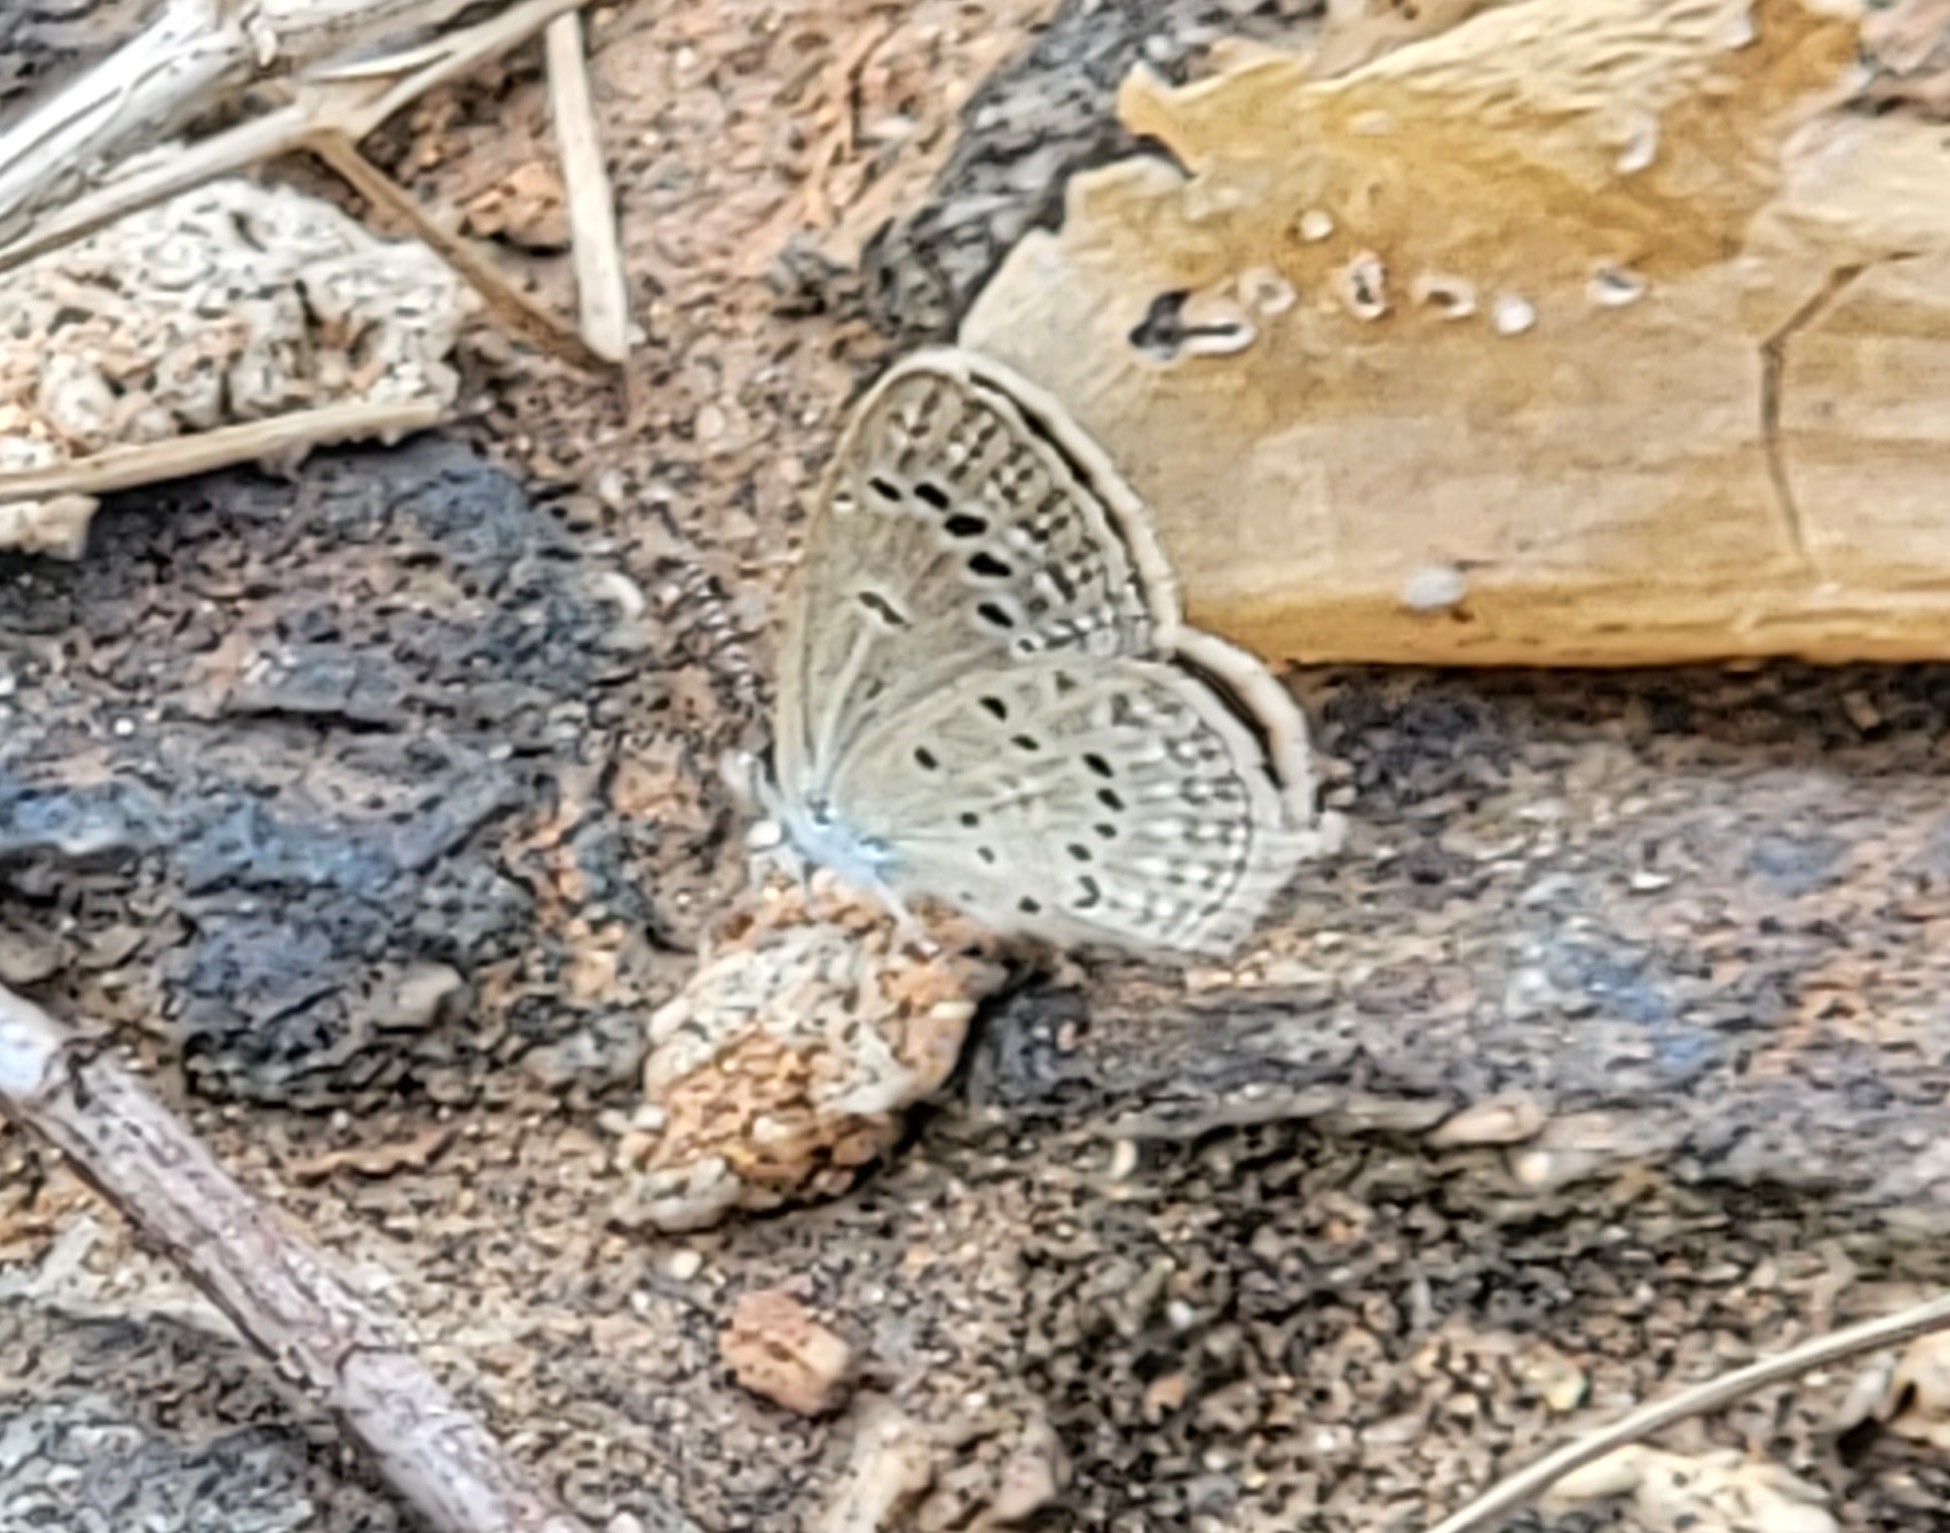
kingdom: Animalia
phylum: Arthropoda
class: Insecta
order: Lepidoptera
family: Lycaenidae
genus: Zizina
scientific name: Zizina otis
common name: Lesser grass blue
